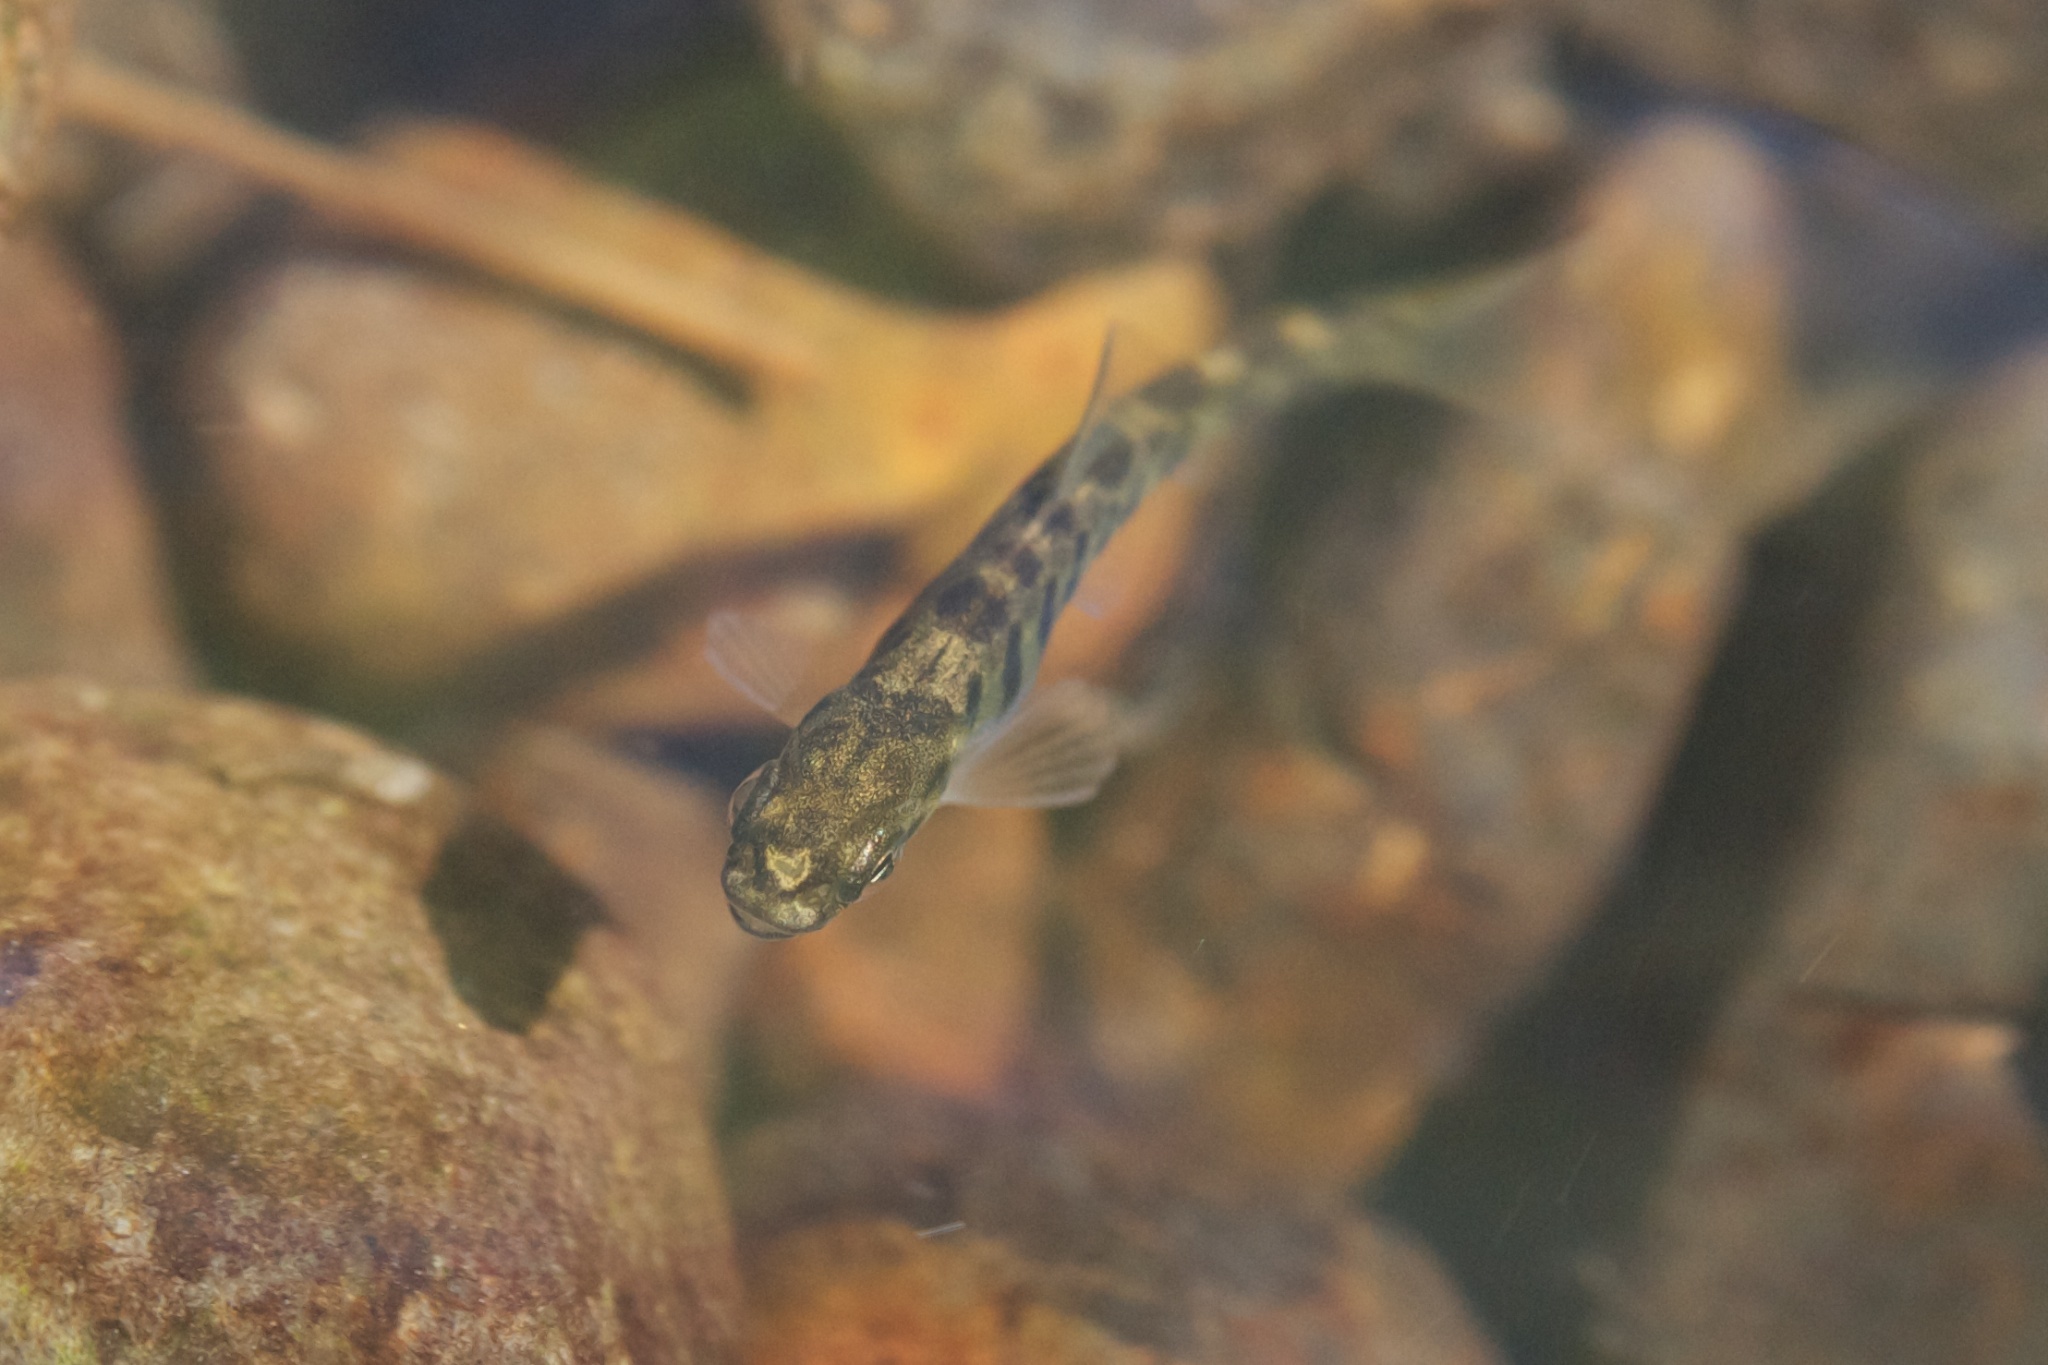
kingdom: Animalia
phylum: Chordata
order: Salmoniformes
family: Salmonidae
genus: Salmo
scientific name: Salmo trutta
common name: Brown trout
